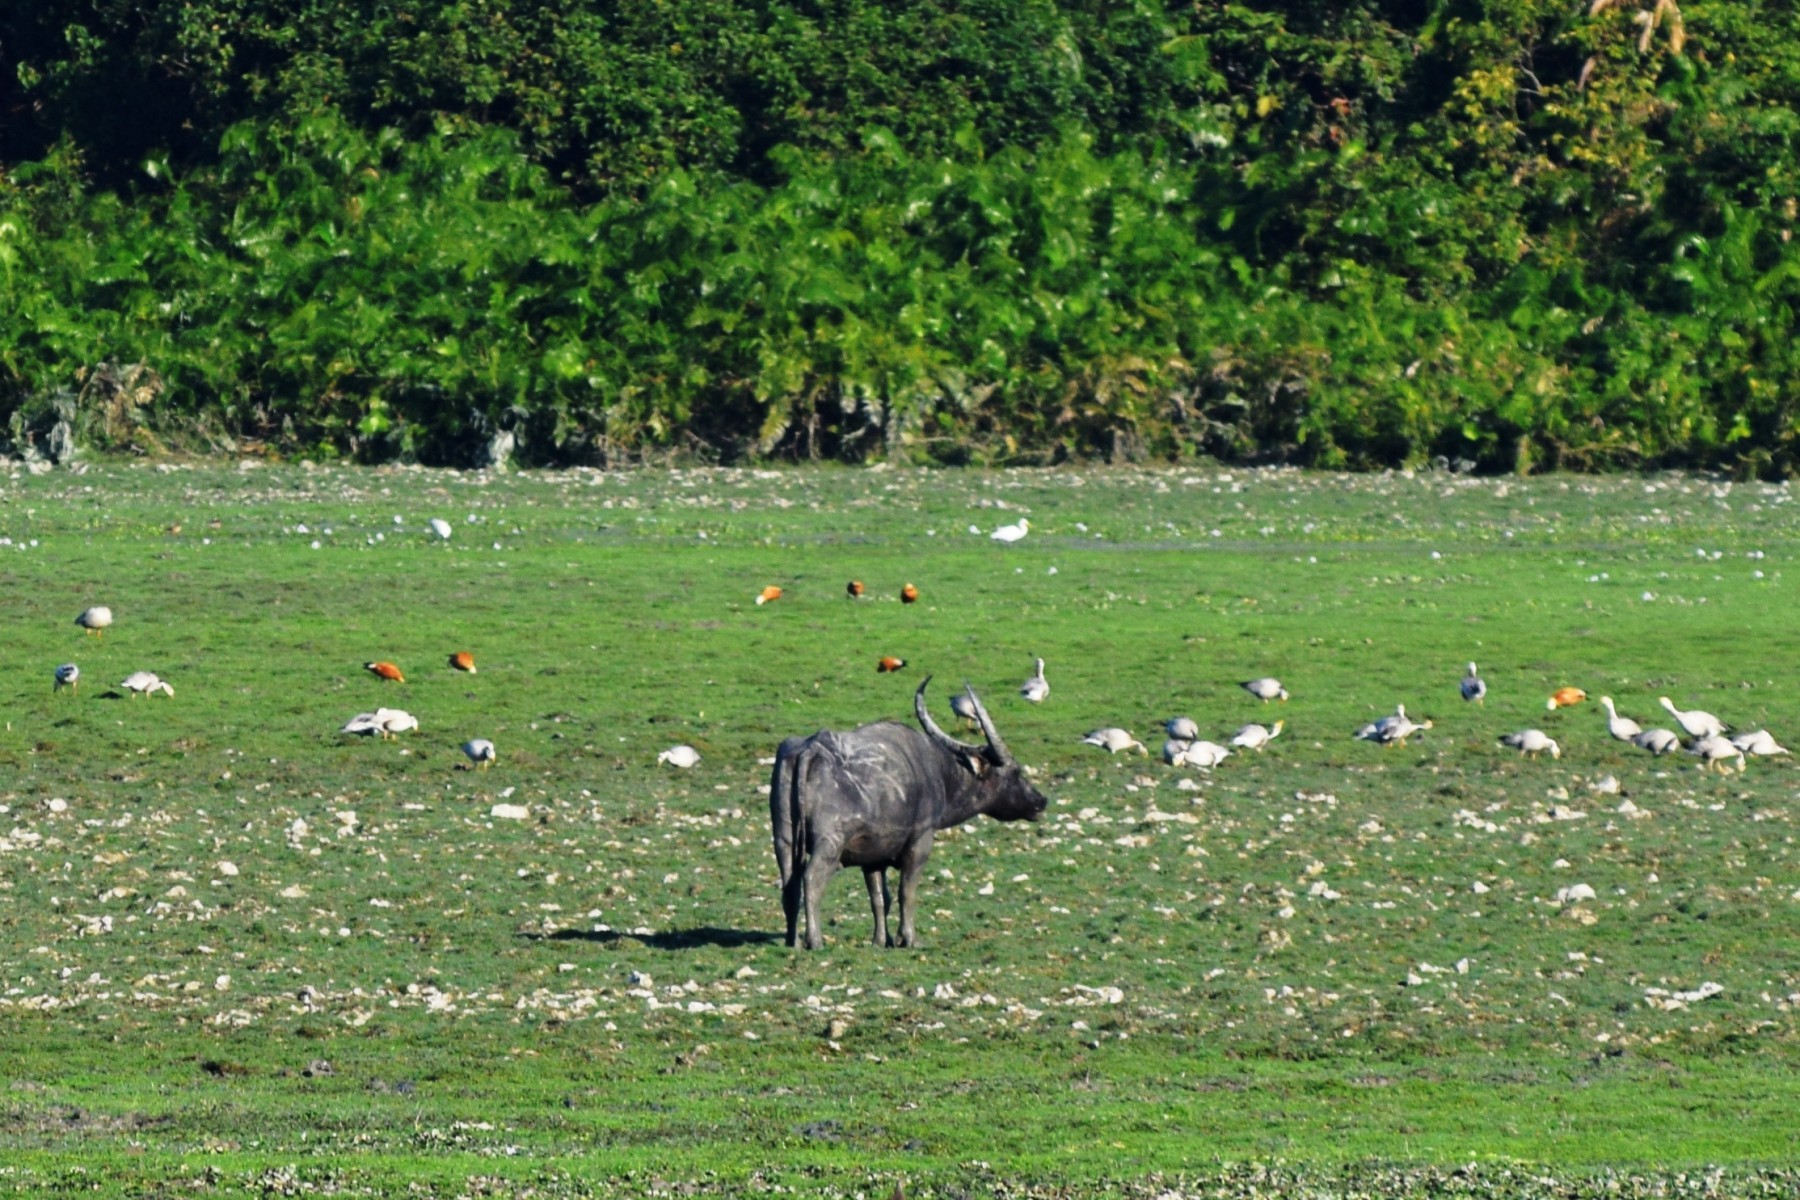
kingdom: Animalia
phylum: Chordata
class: Mammalia
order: Artiodactyla
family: Bovidae
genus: Bubalus
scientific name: Bubalus bubalis
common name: Water buffalo
